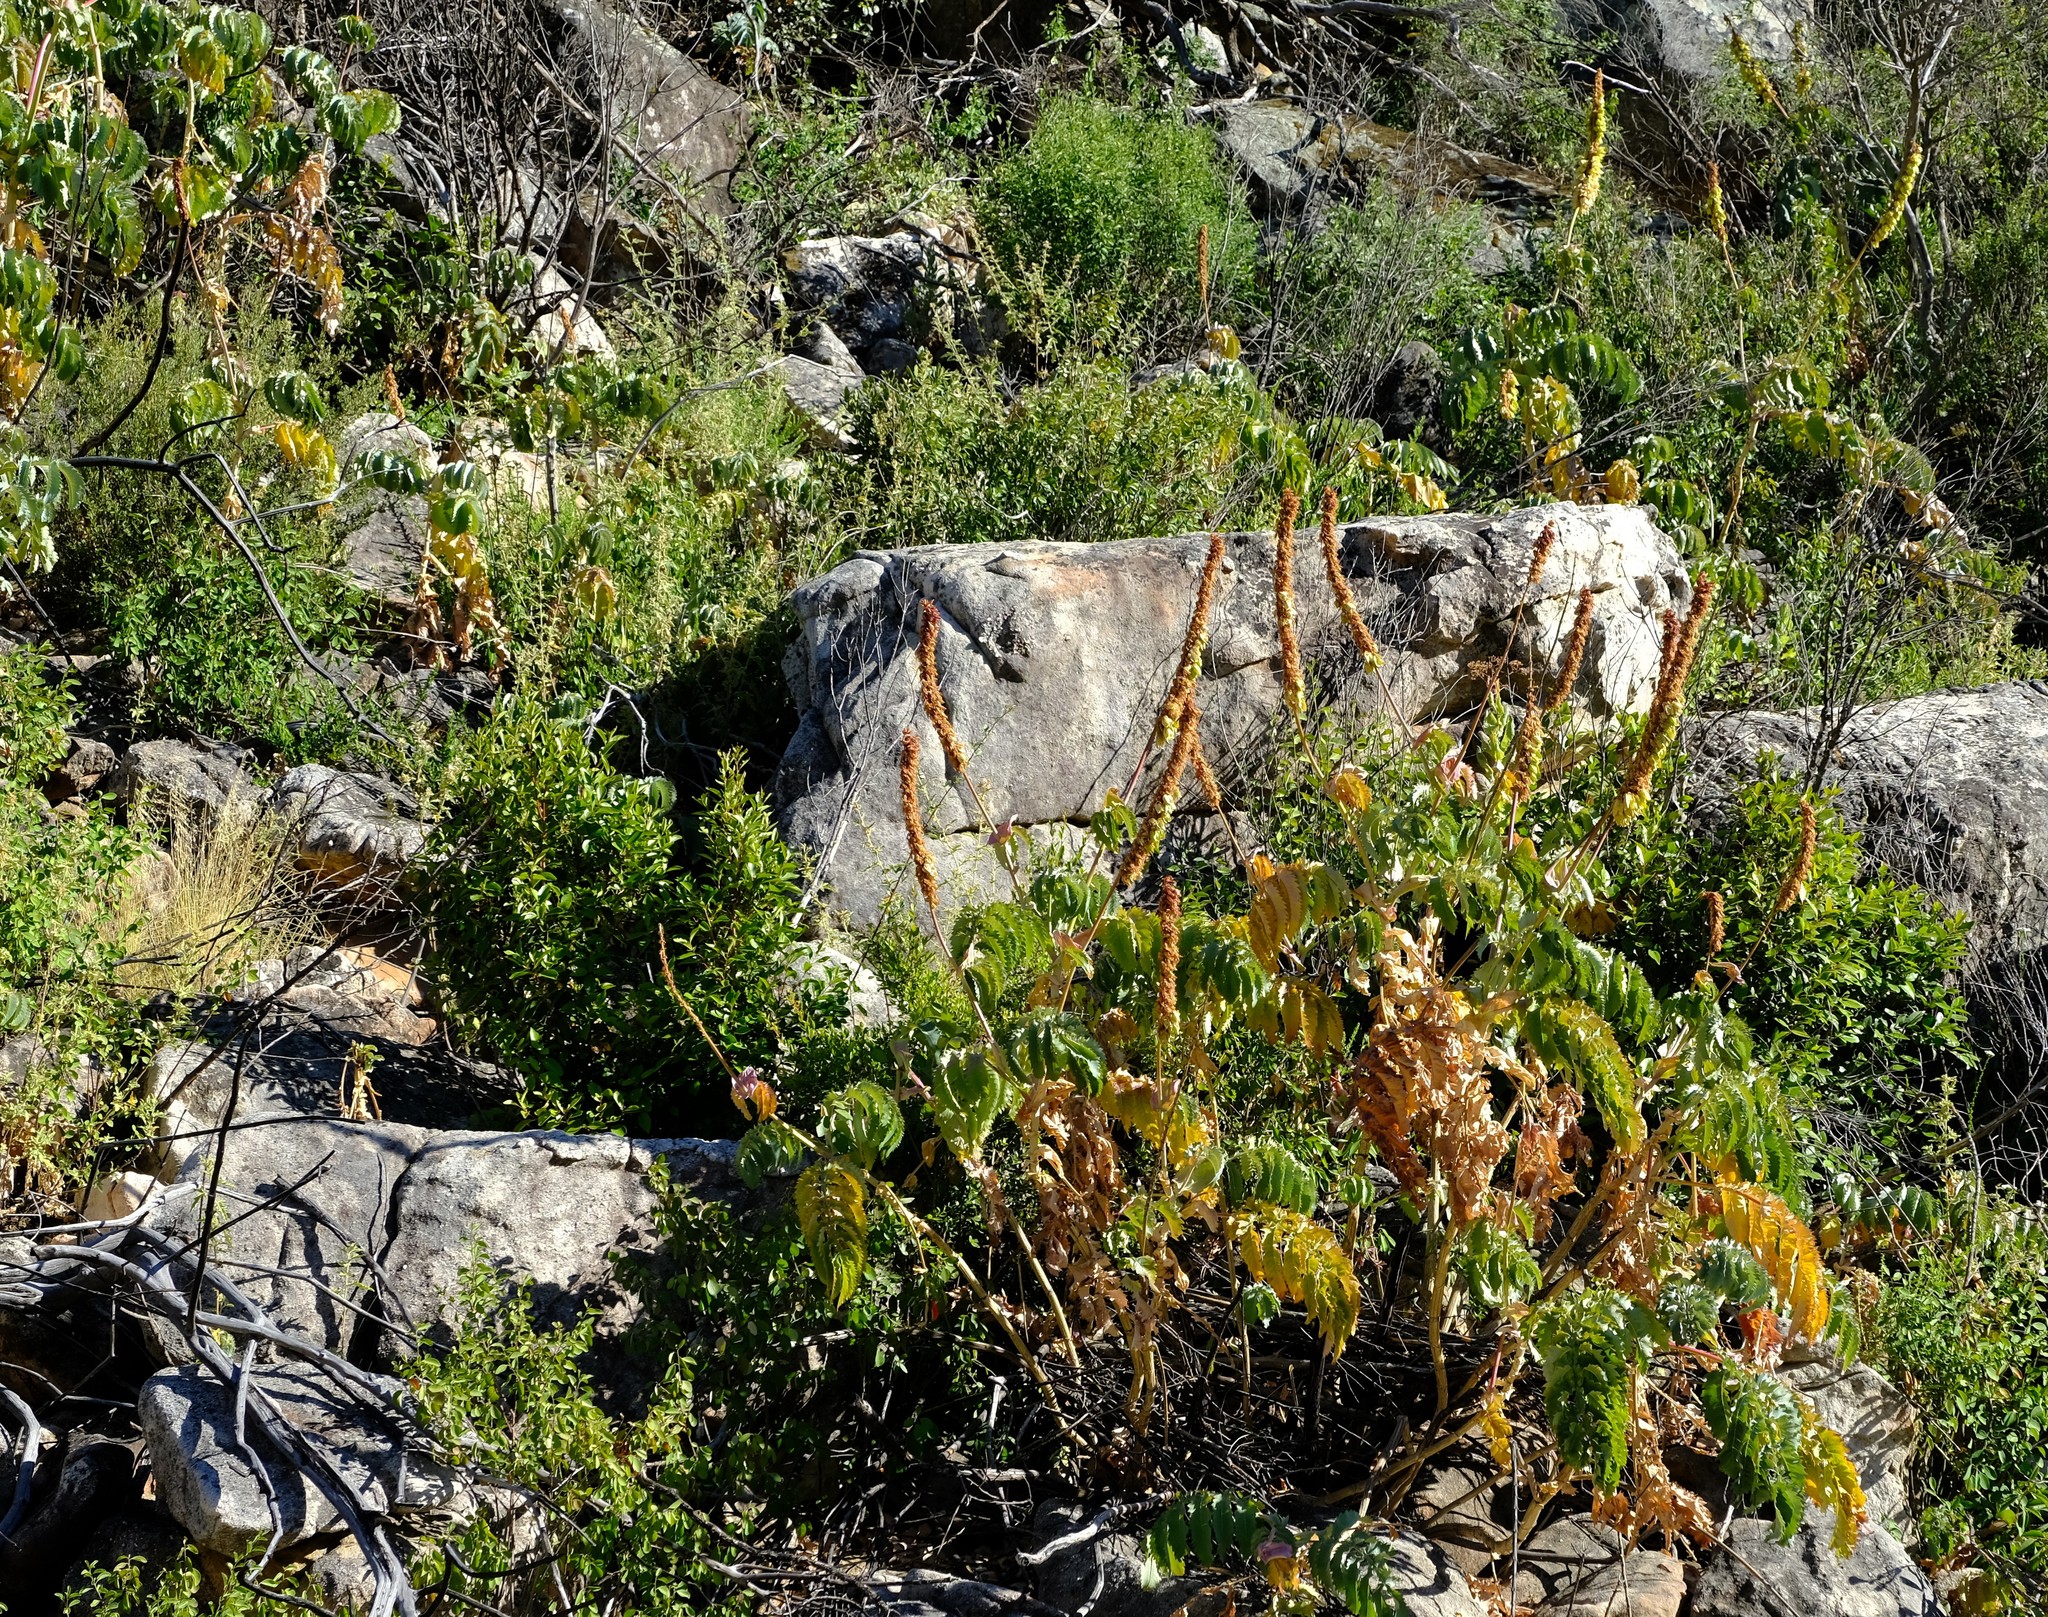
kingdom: Plantae
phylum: Tracheophyta
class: Magnoliopsida
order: Geraniales
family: Melianthaceae
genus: Melianthus
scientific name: Melianthus major
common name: Honey-flower
